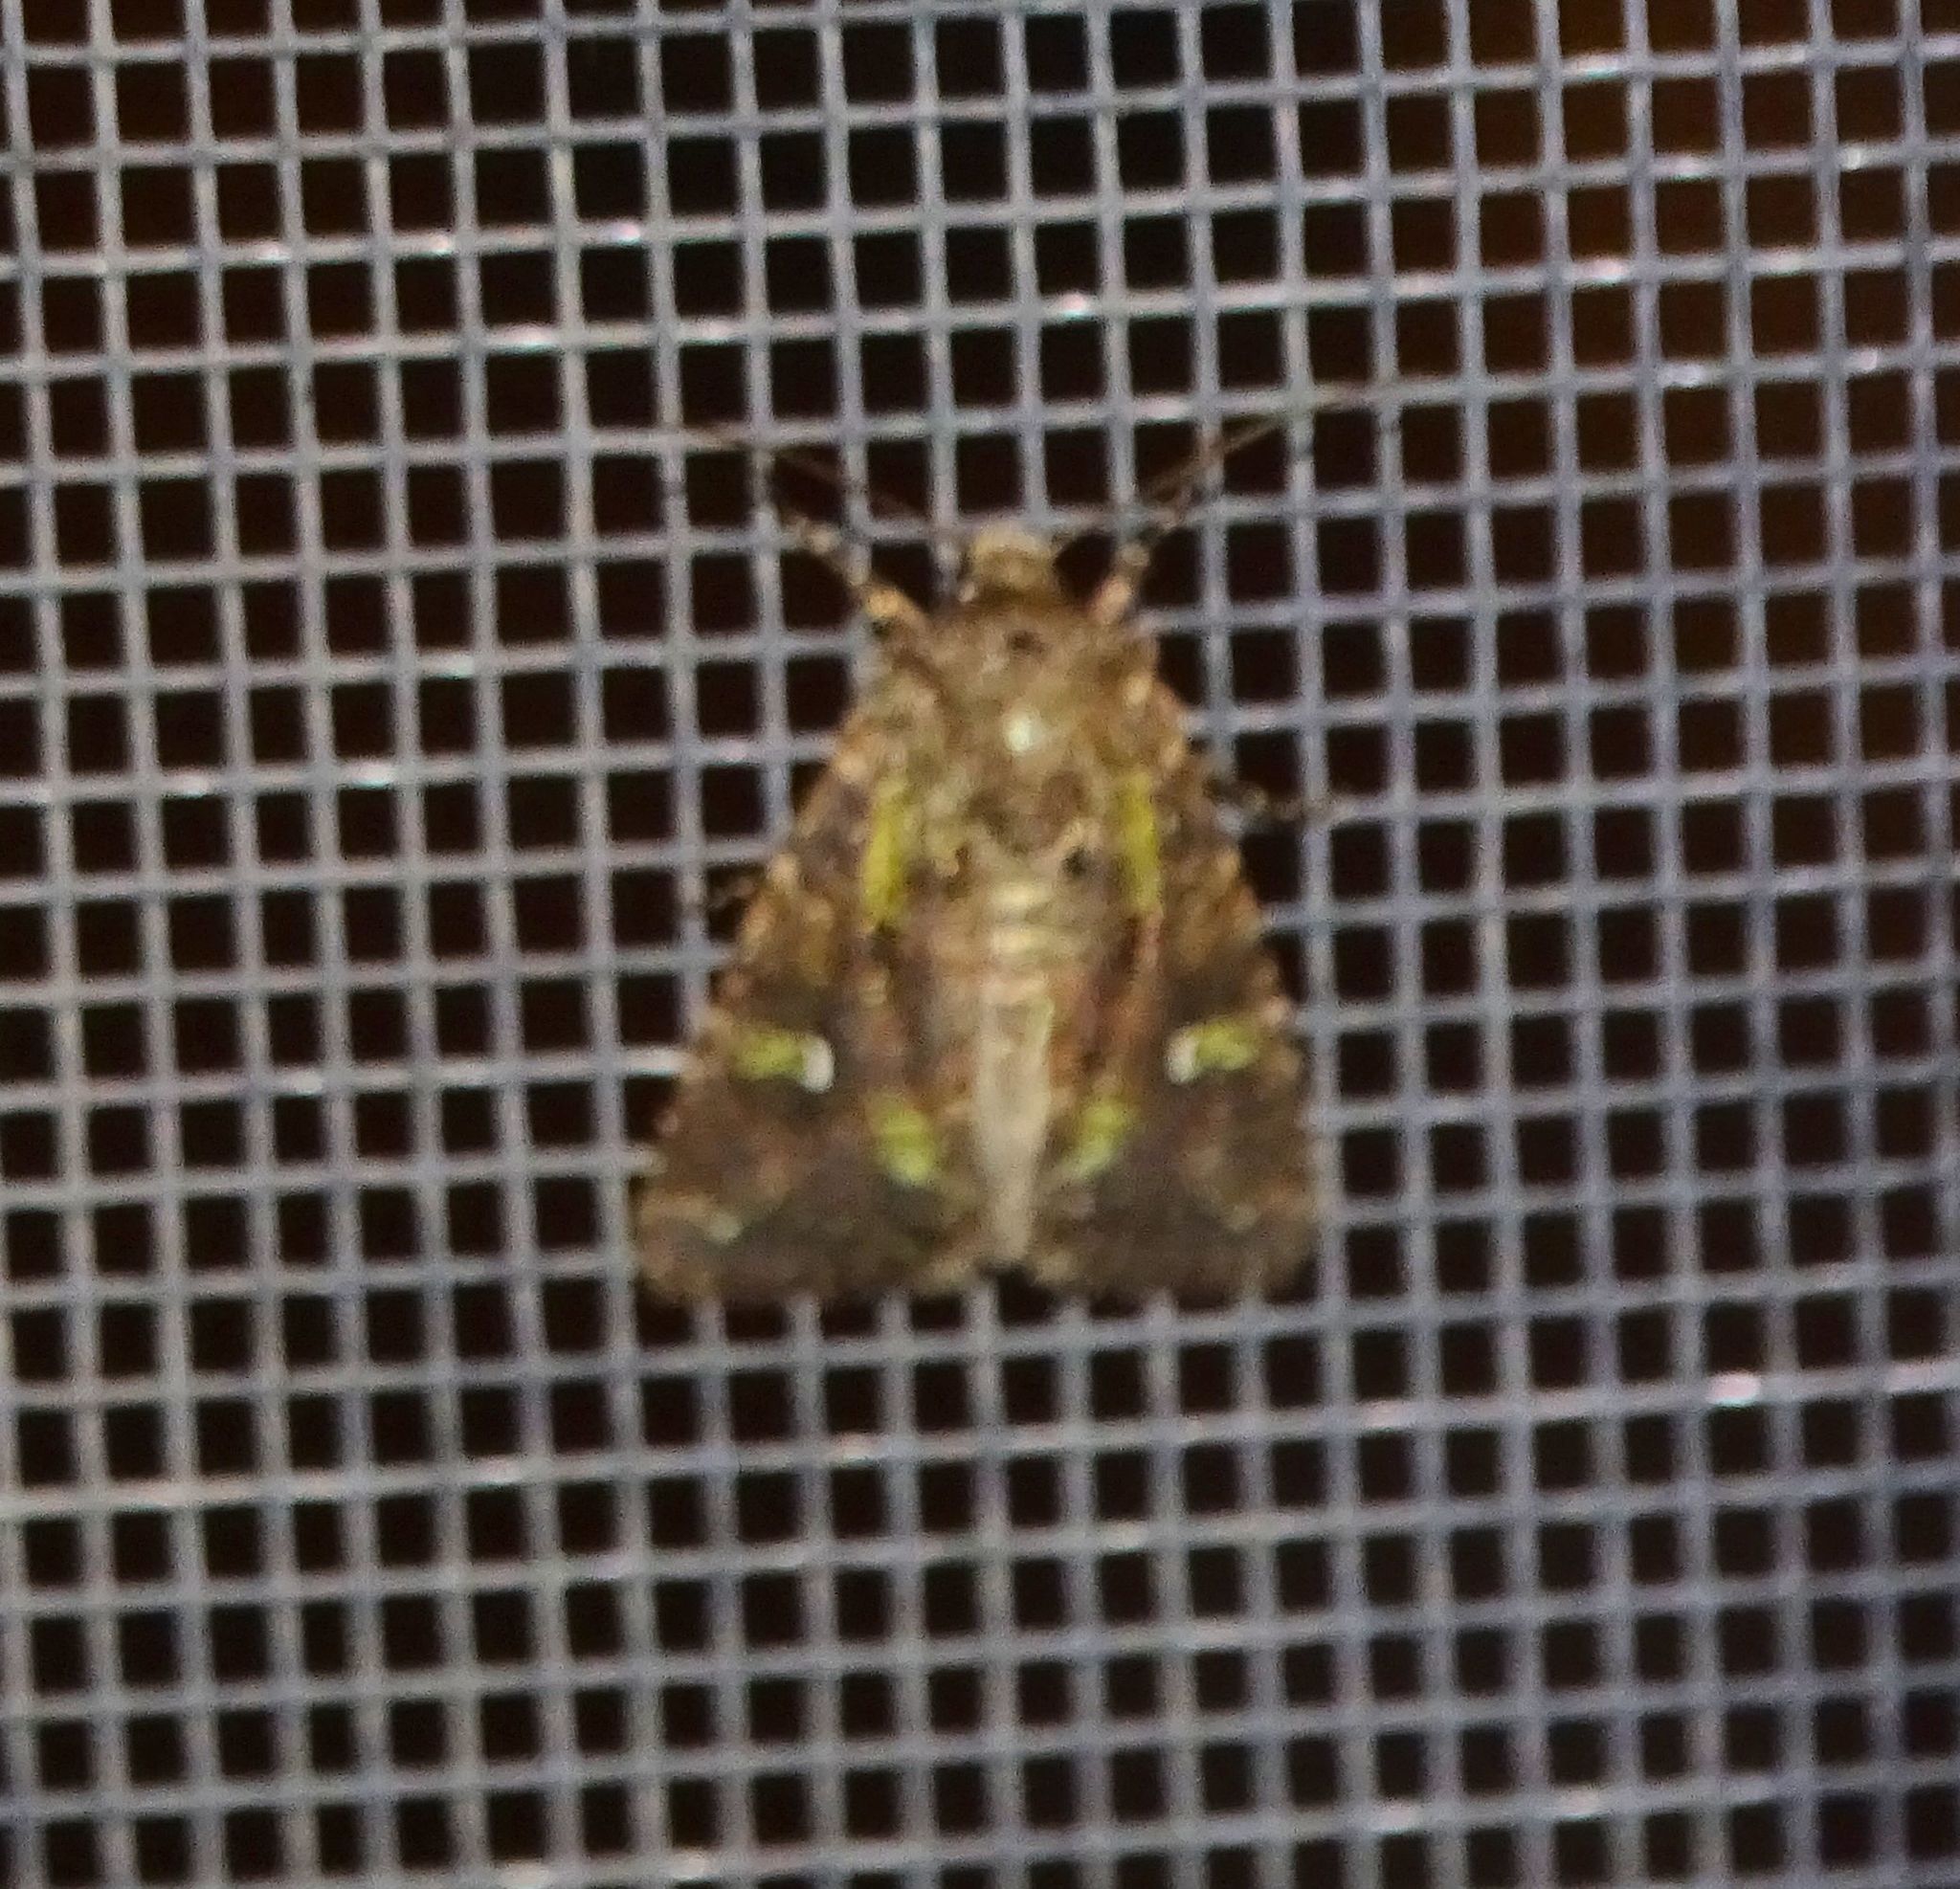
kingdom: Animalia
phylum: Arthropoda
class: Insecta
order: Lepidoptera
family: Noctuidae
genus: Lacinipolia
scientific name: Lacinipolia renigera
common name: Kidney-spotted minor
